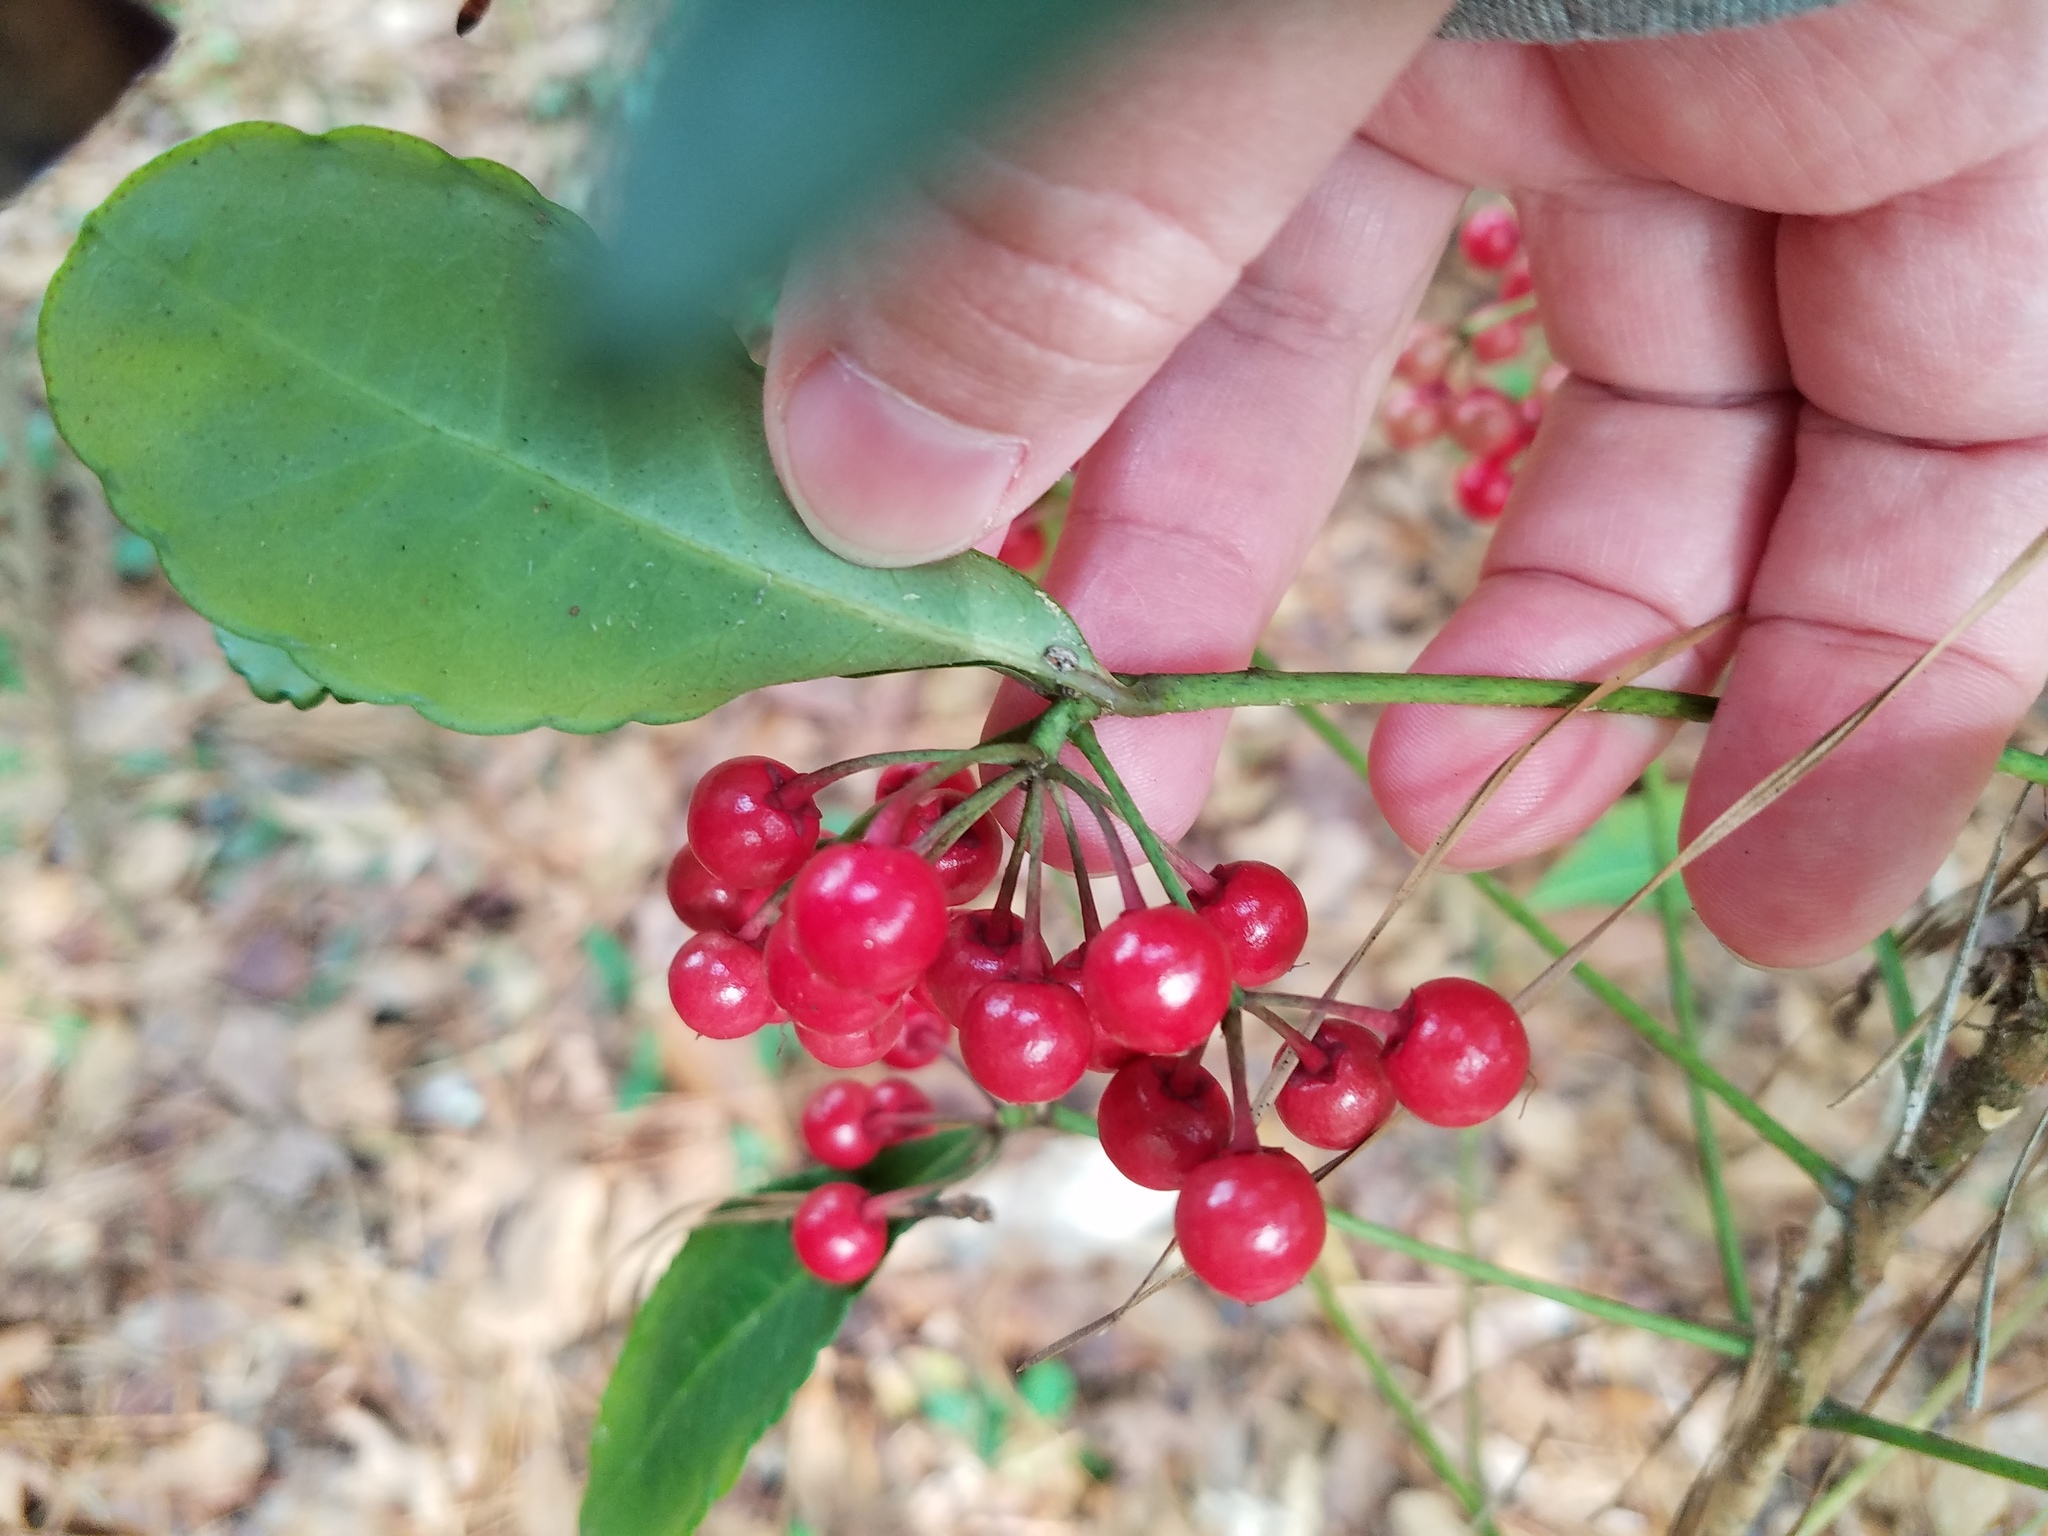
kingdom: Plantae
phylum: Tracheophyta
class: Magnoliopsida
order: Ericales
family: Primulaceae
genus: Ardisia
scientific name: Ardisia crenata
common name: Hen's eyes
